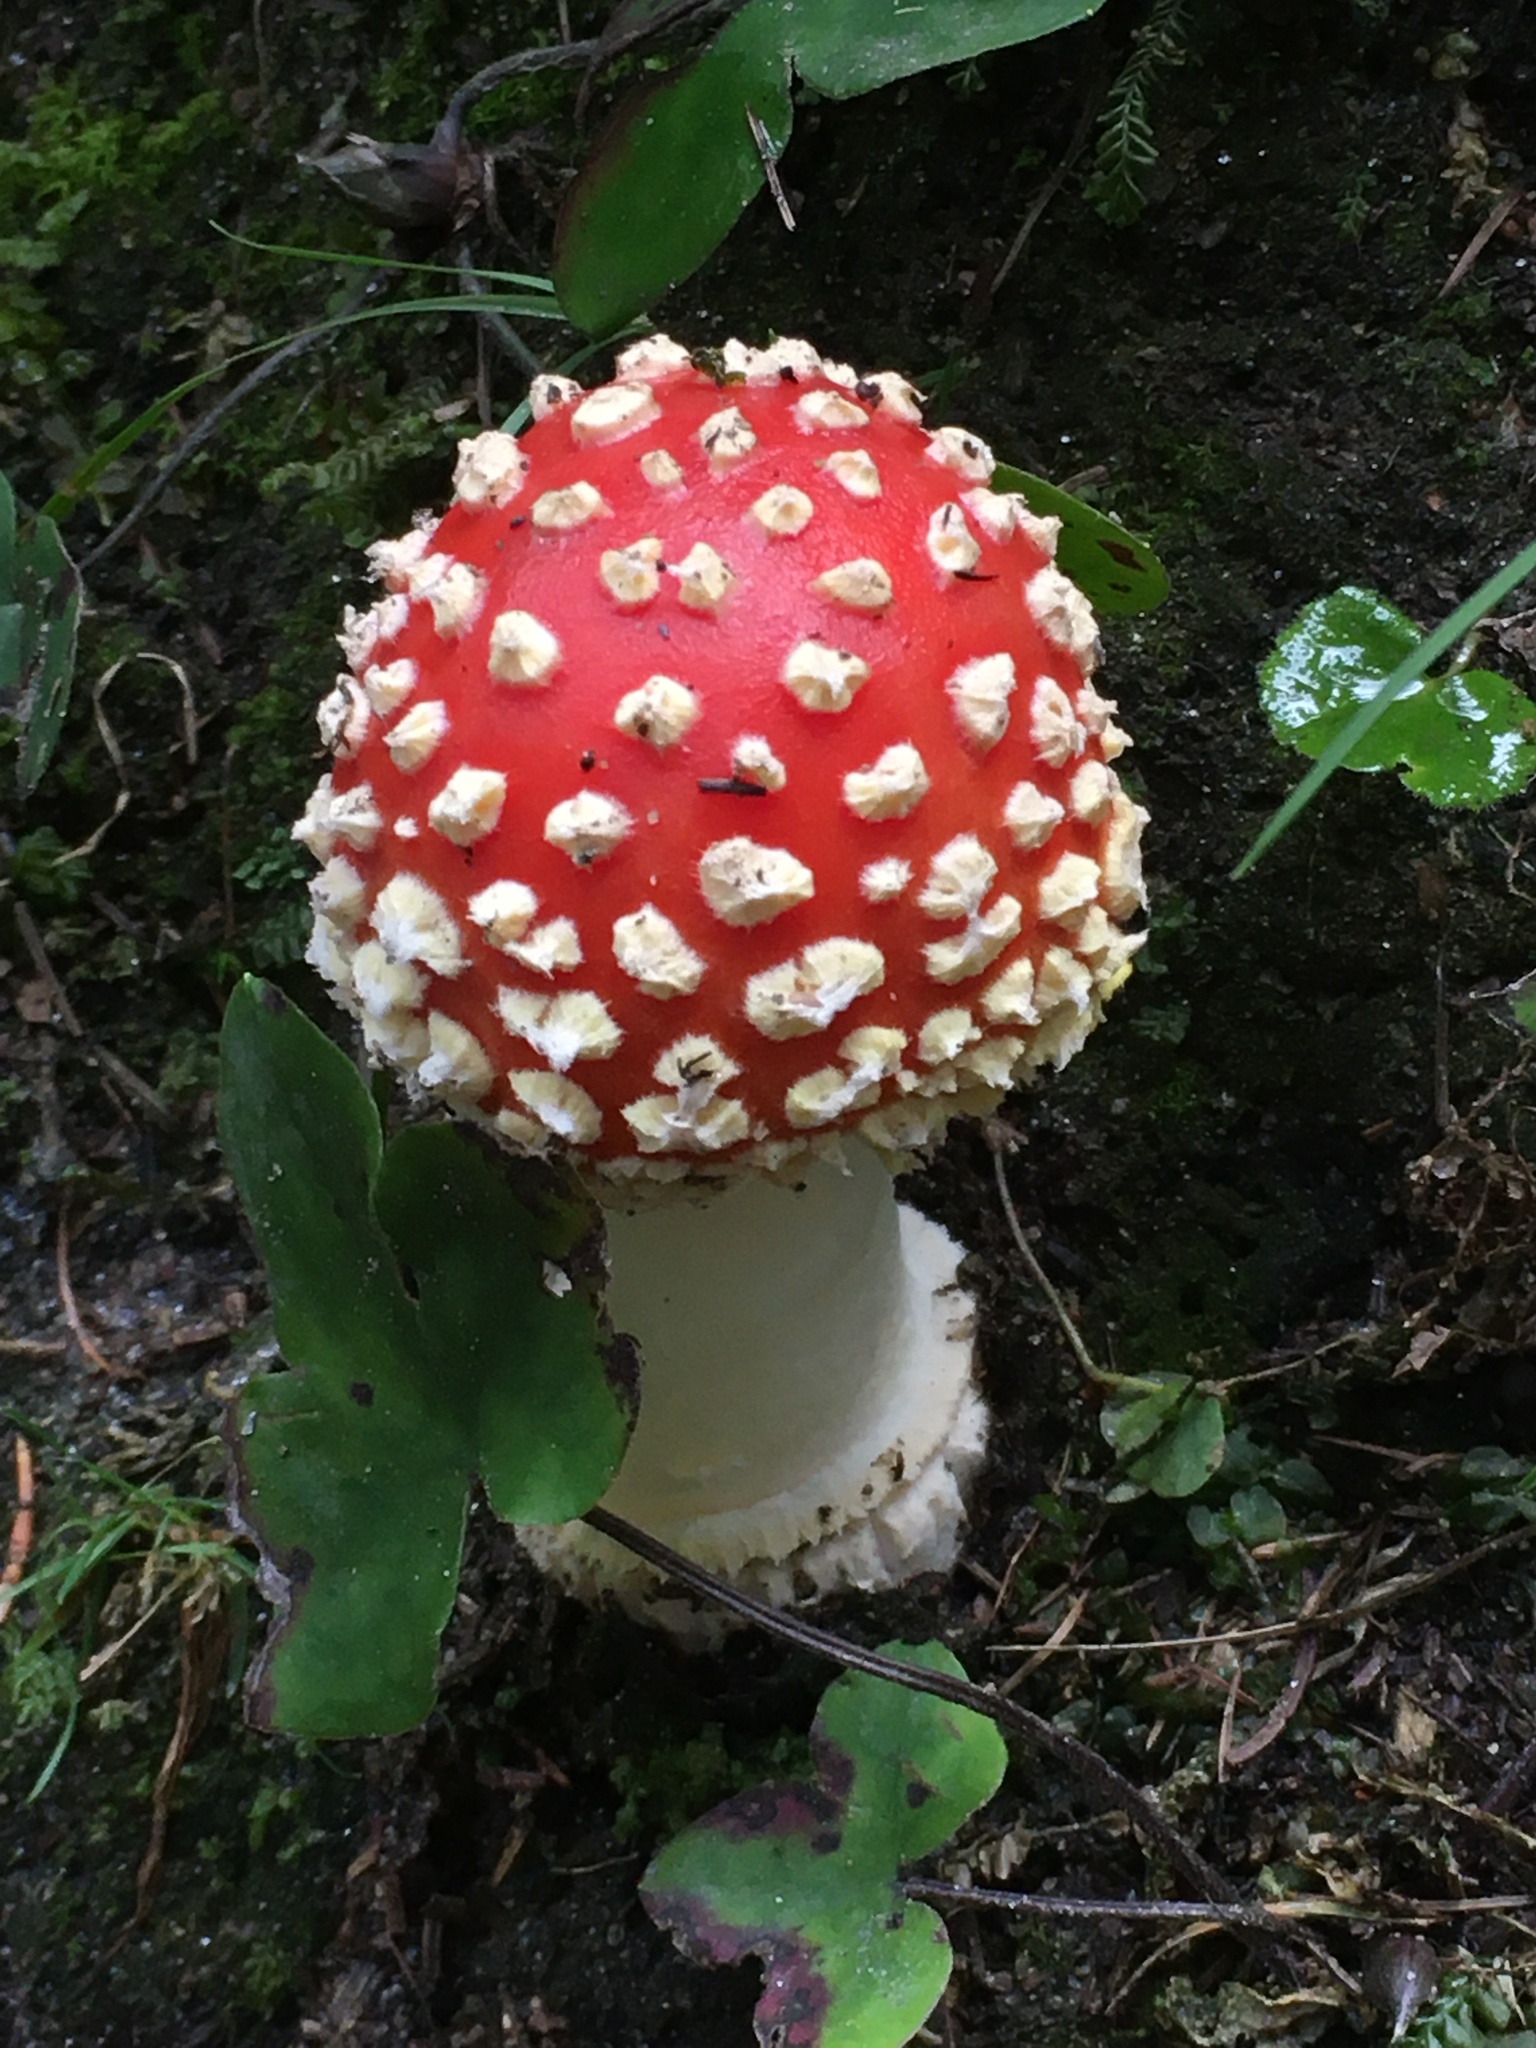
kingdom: Fungi
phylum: Basidiomycota
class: Agaricomycetes
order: Agaricales
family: Amanitaceae
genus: Amanita
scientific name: Amanita muscaria
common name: Fly agaric
